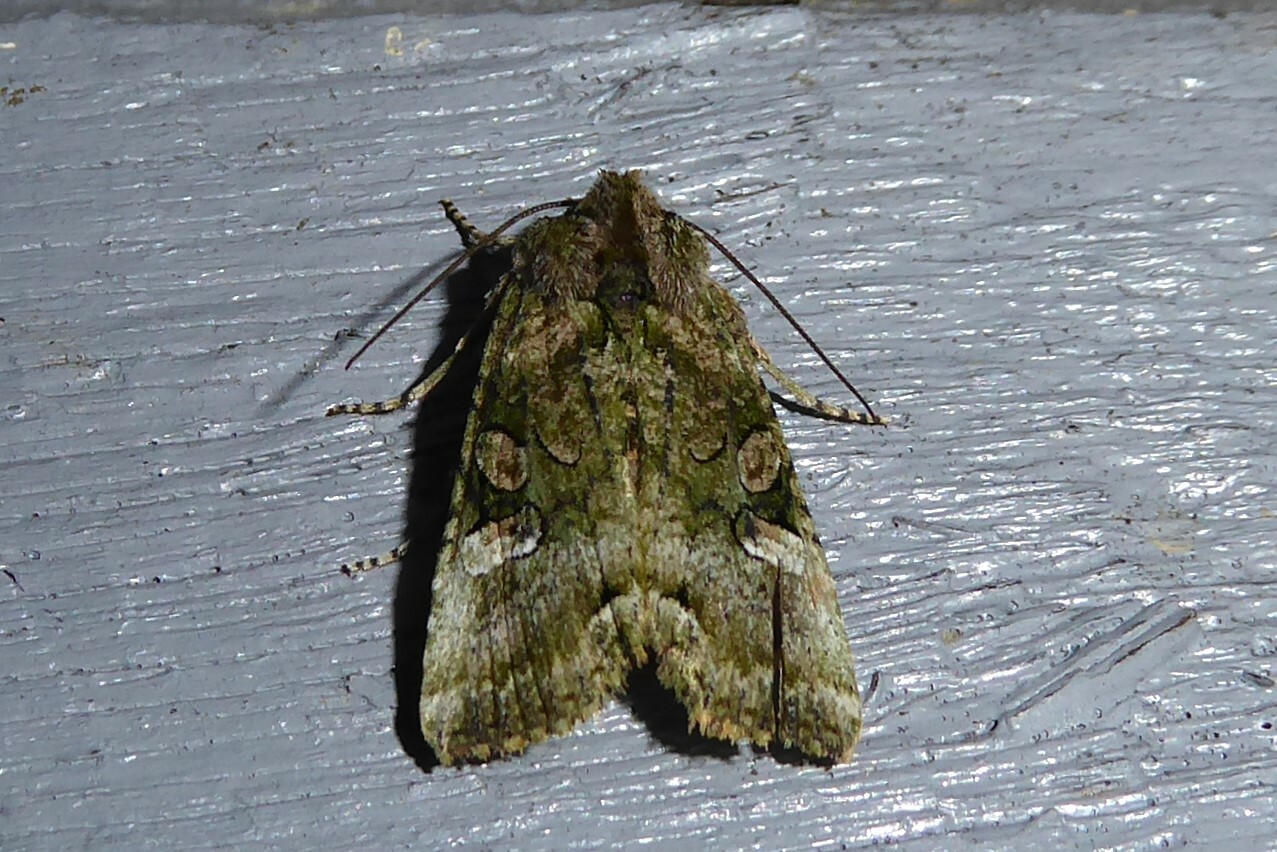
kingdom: Animalia
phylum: Arthropoda
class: Insecta
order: Lepidoptera
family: Noctuidae
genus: Meterana
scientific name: Meterana levis
